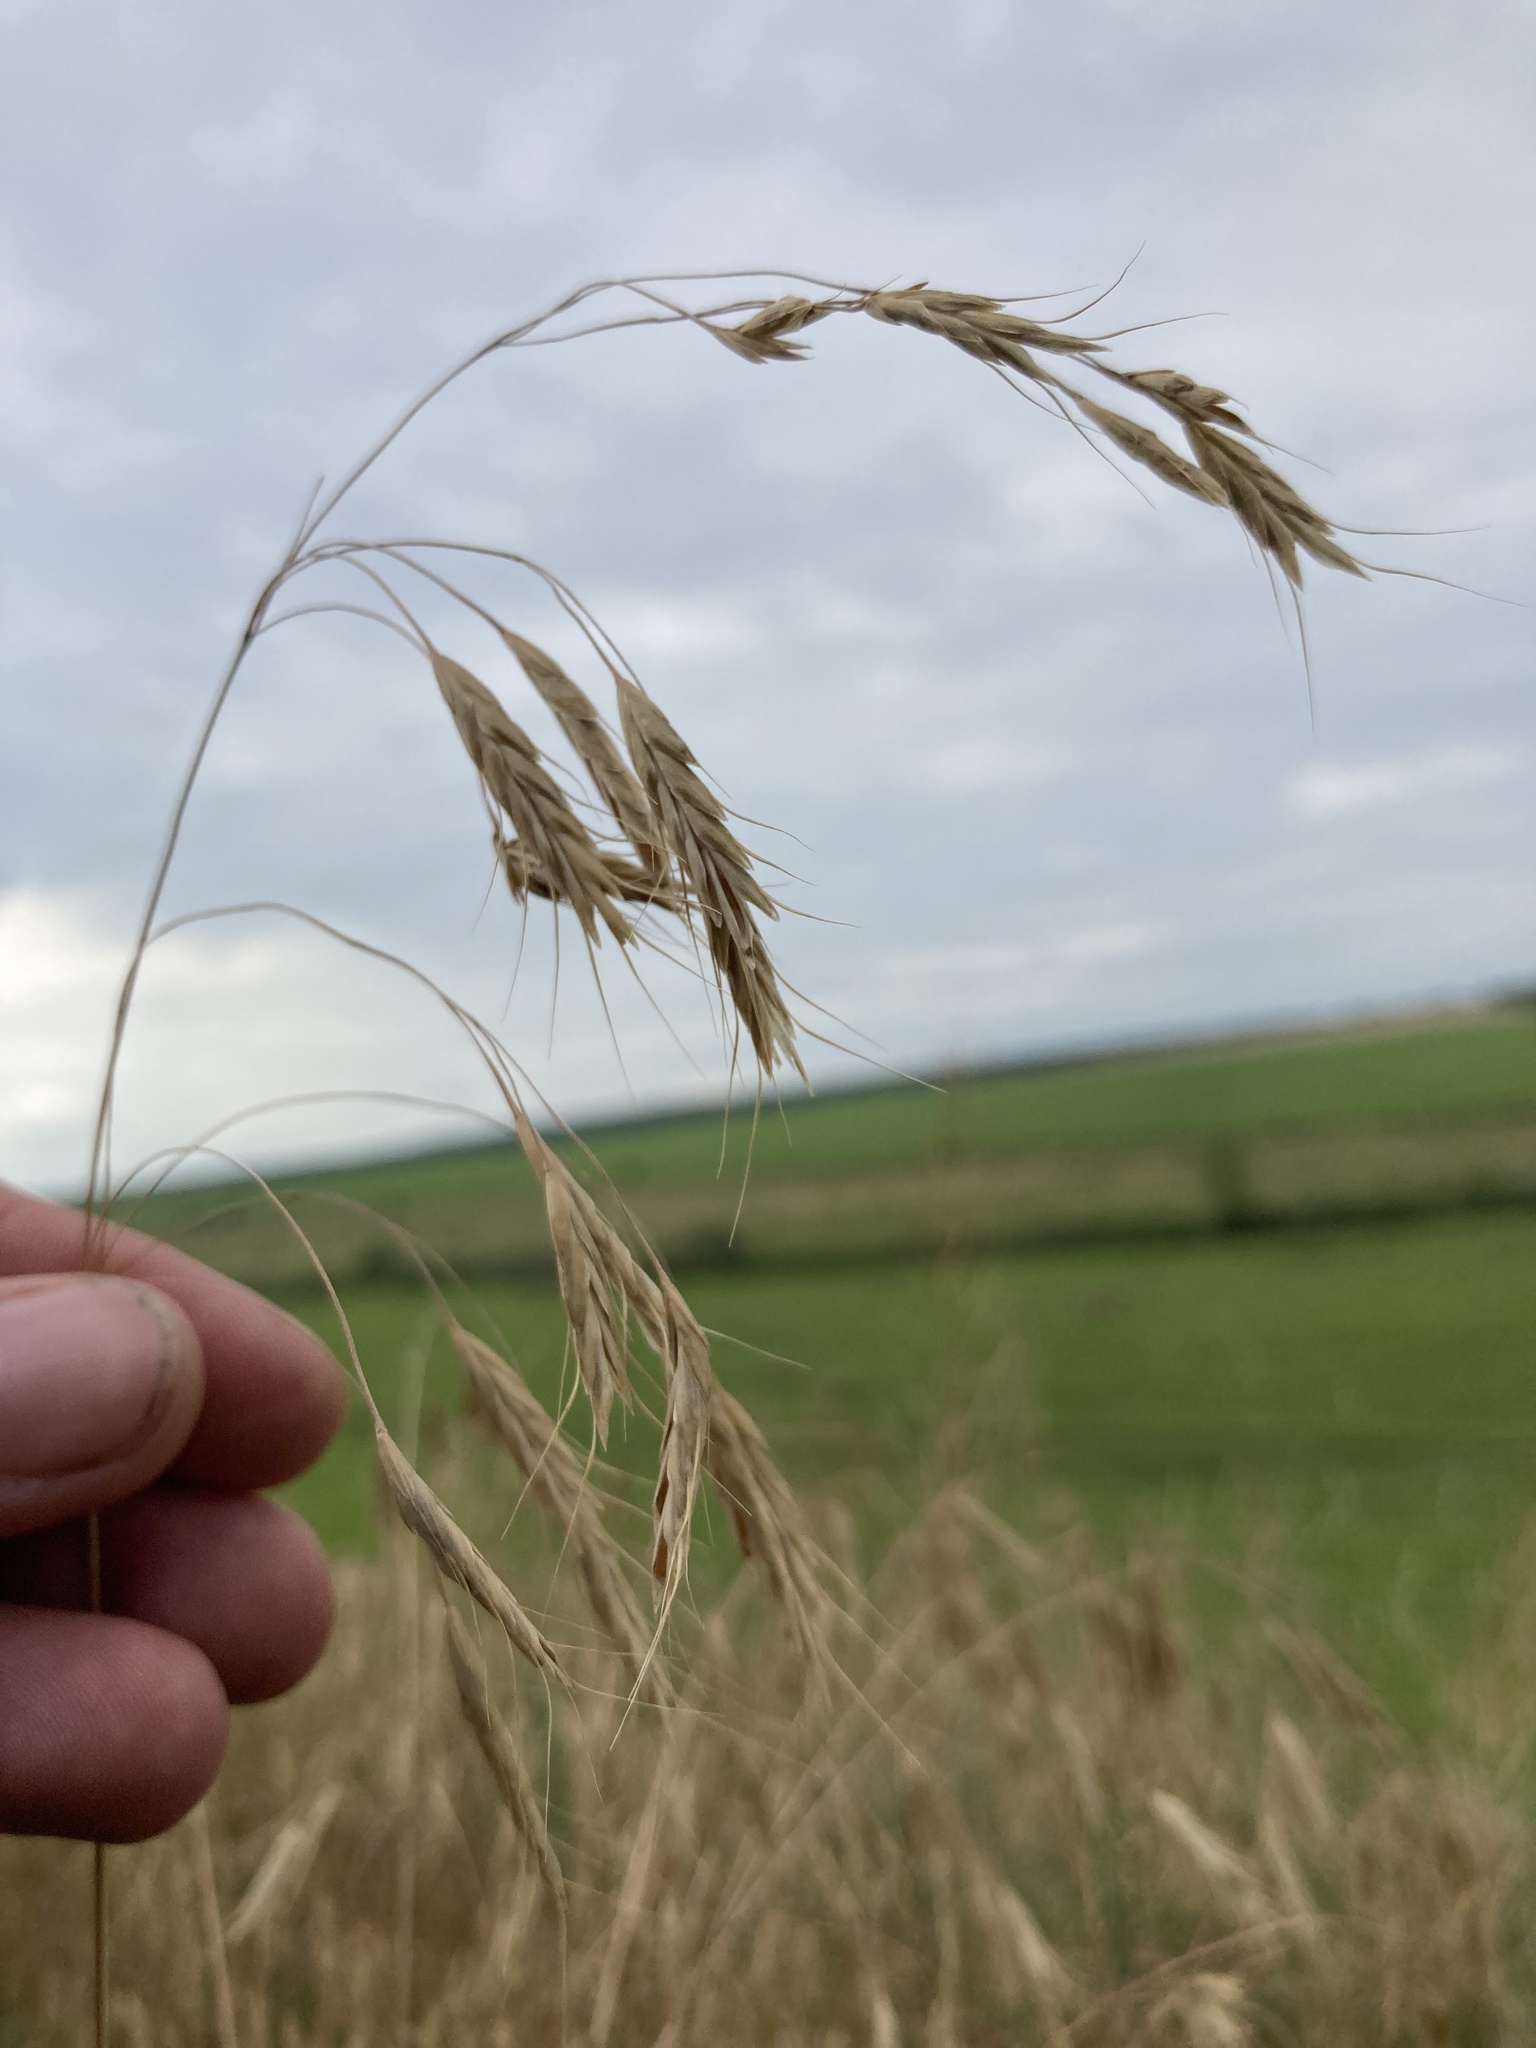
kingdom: Plantae
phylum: Tracheophyta
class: Liliopsida
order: Poales
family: Poaceae
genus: Bromus
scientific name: Bromus squarrosus
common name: Corn brome
